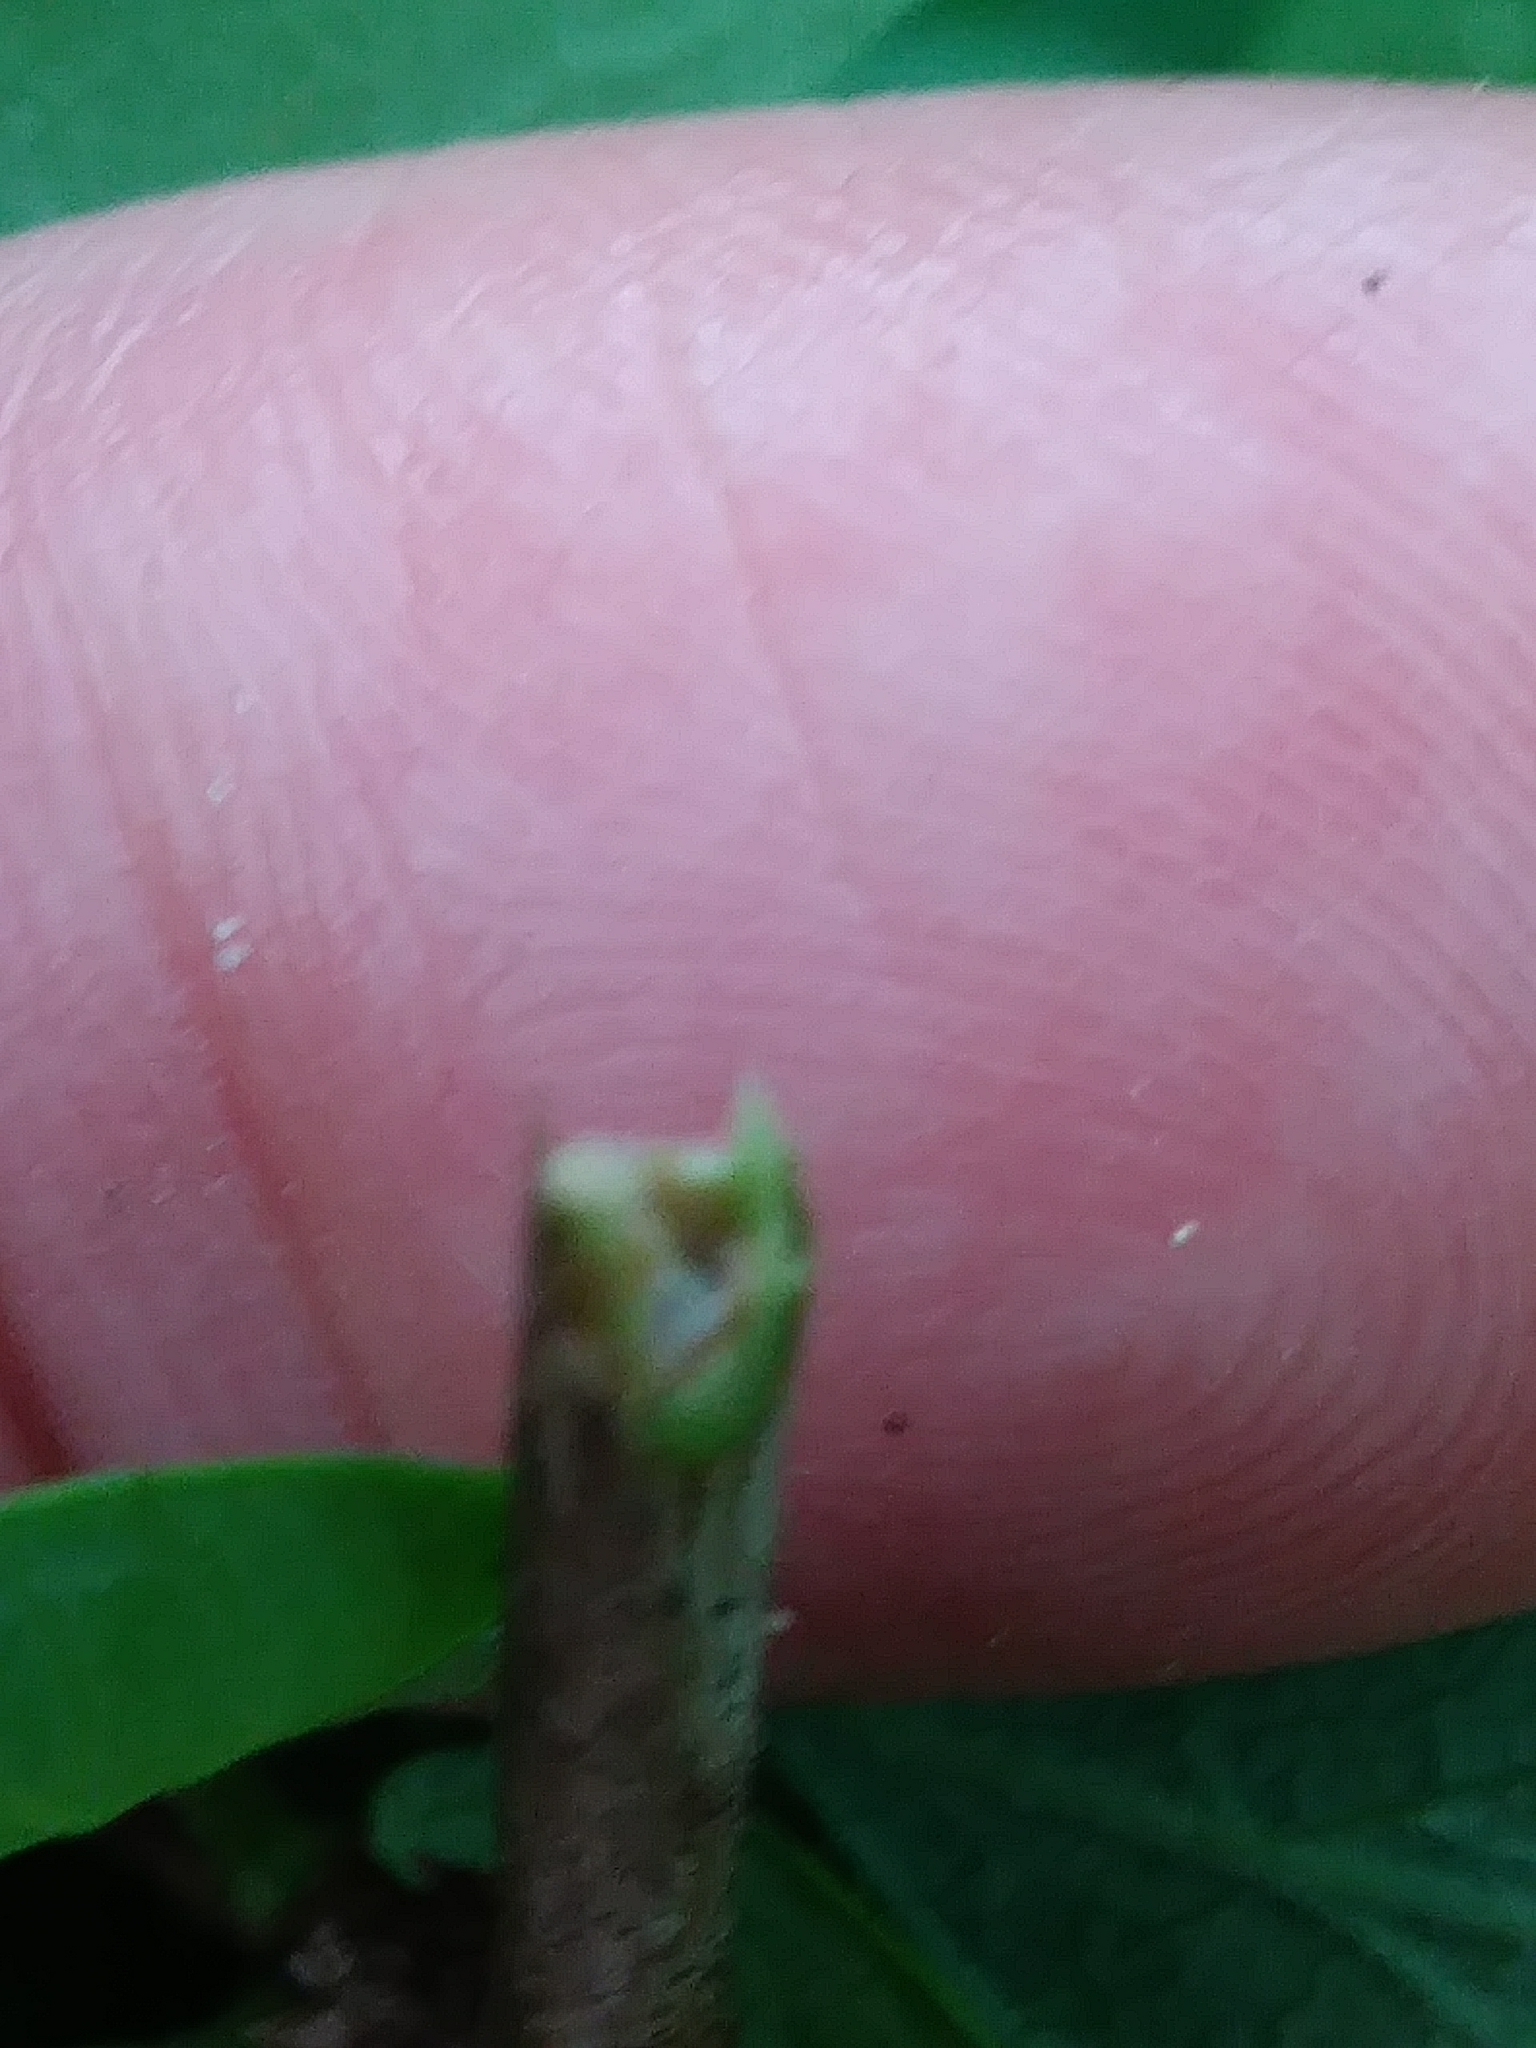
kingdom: Plantae
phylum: Tracheophyta
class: Magnoliopsida
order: Dipsacales
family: Caprifoliaceae
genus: Lonicera
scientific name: Lonicera tatarica
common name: Tatarian honeysuckle
